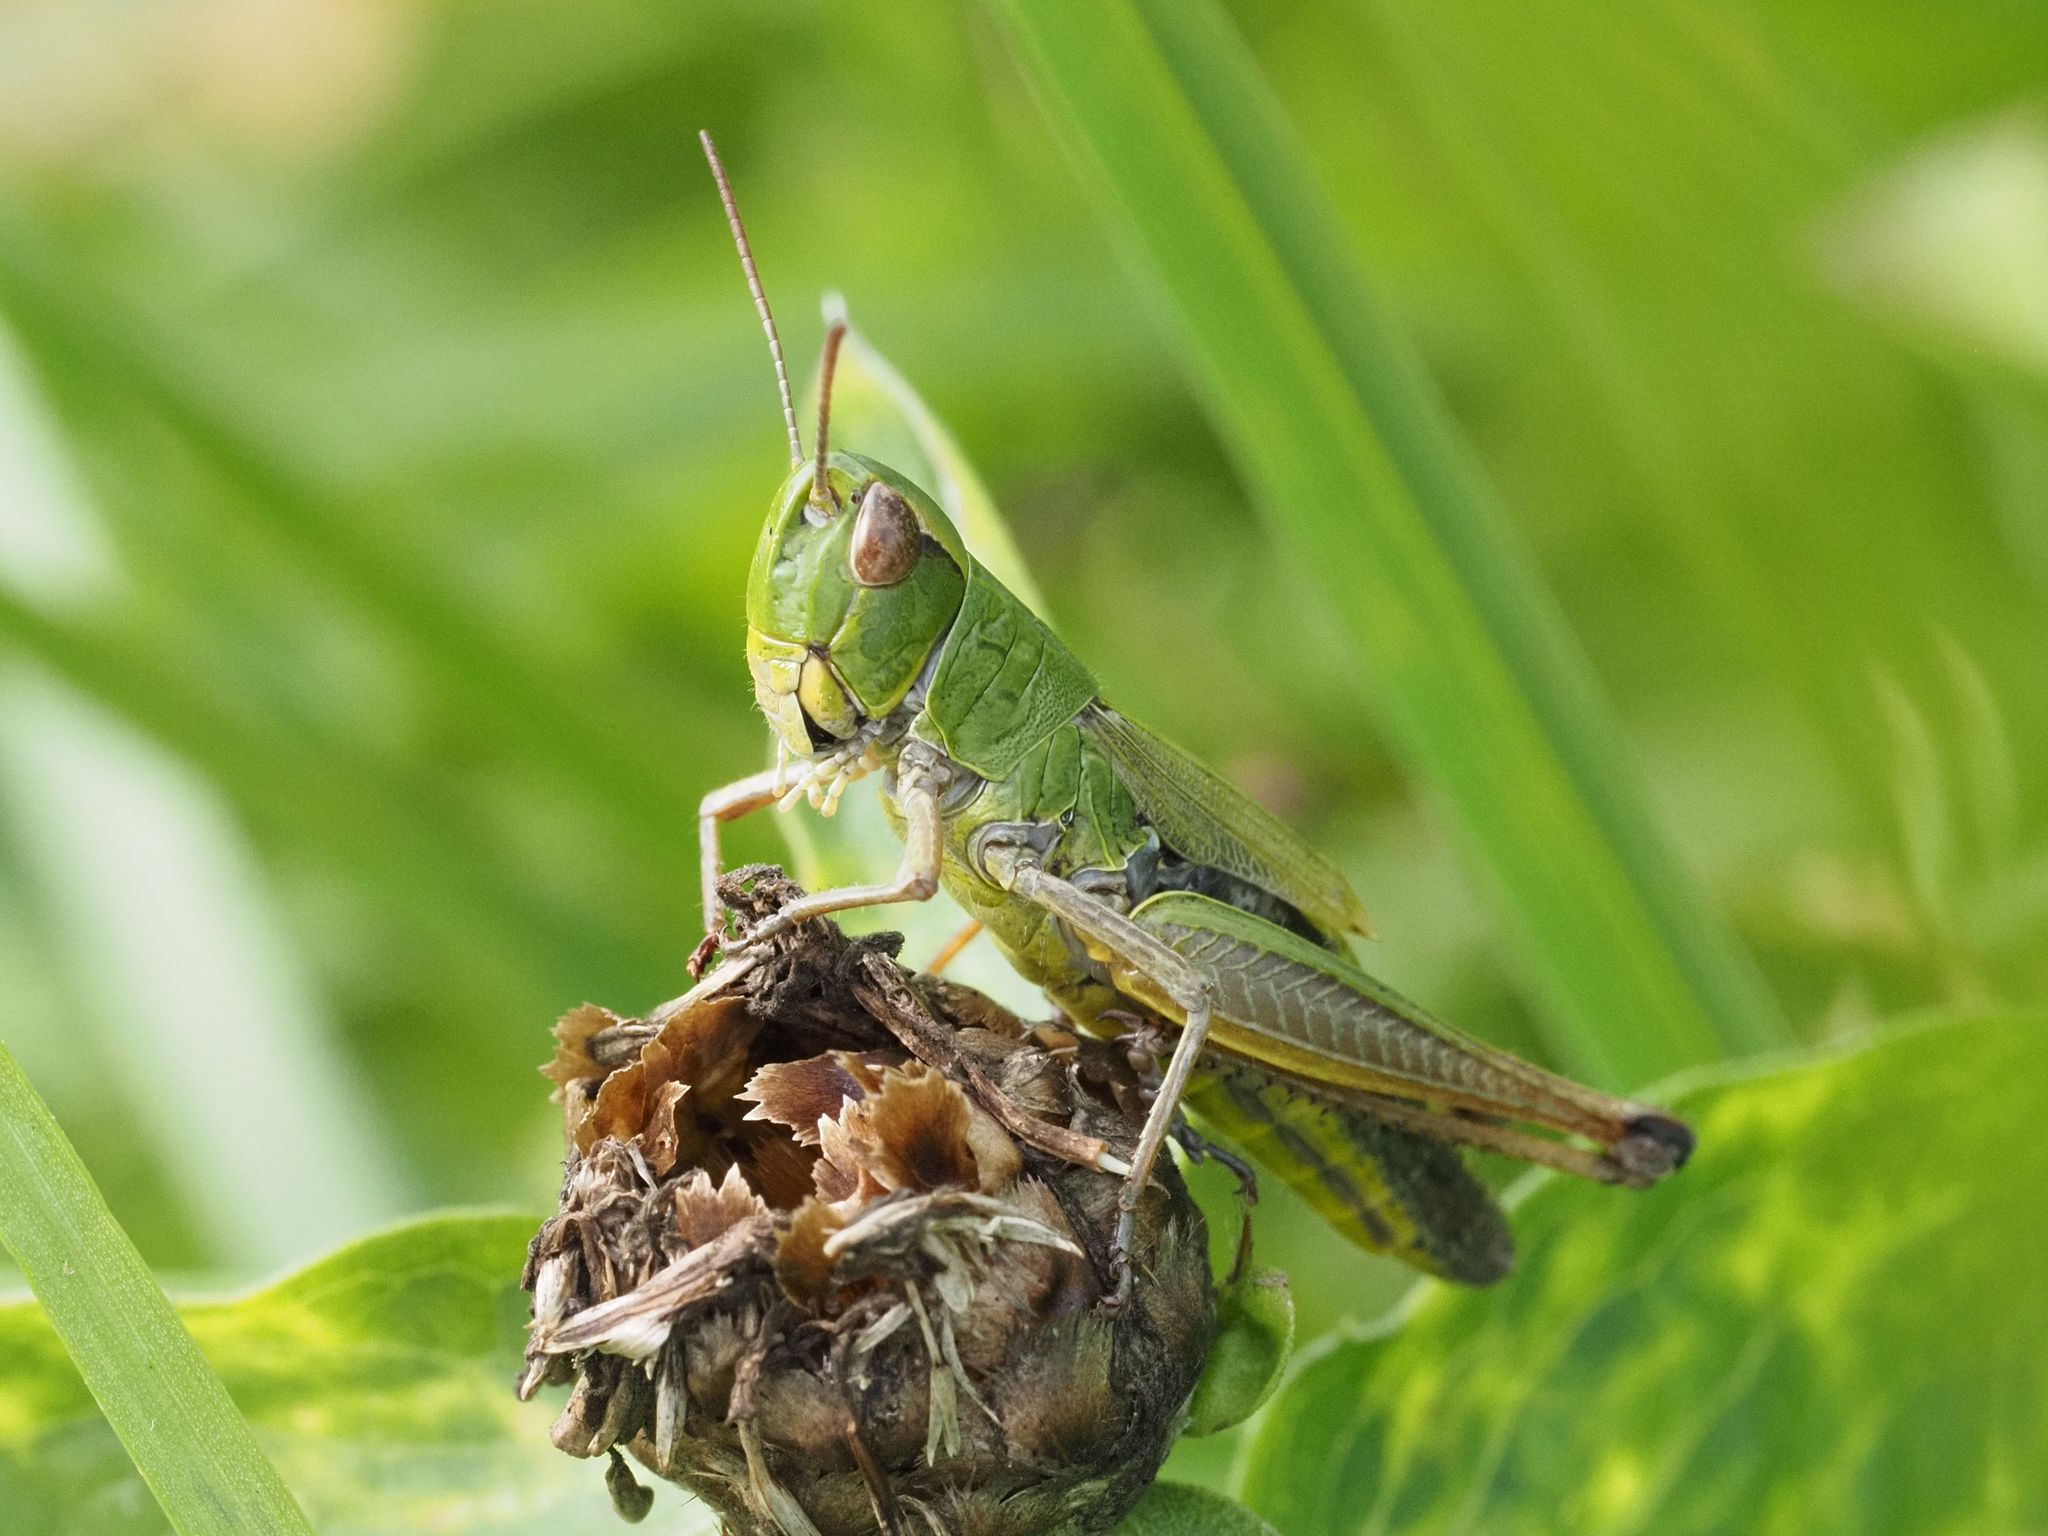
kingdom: Animalia
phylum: Arthropoda
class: Insecta
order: Orthoptera
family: Acrididae
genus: Pseudochorthippus
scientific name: Pseudochorthippus parallelus
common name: Meadow grasshopper
